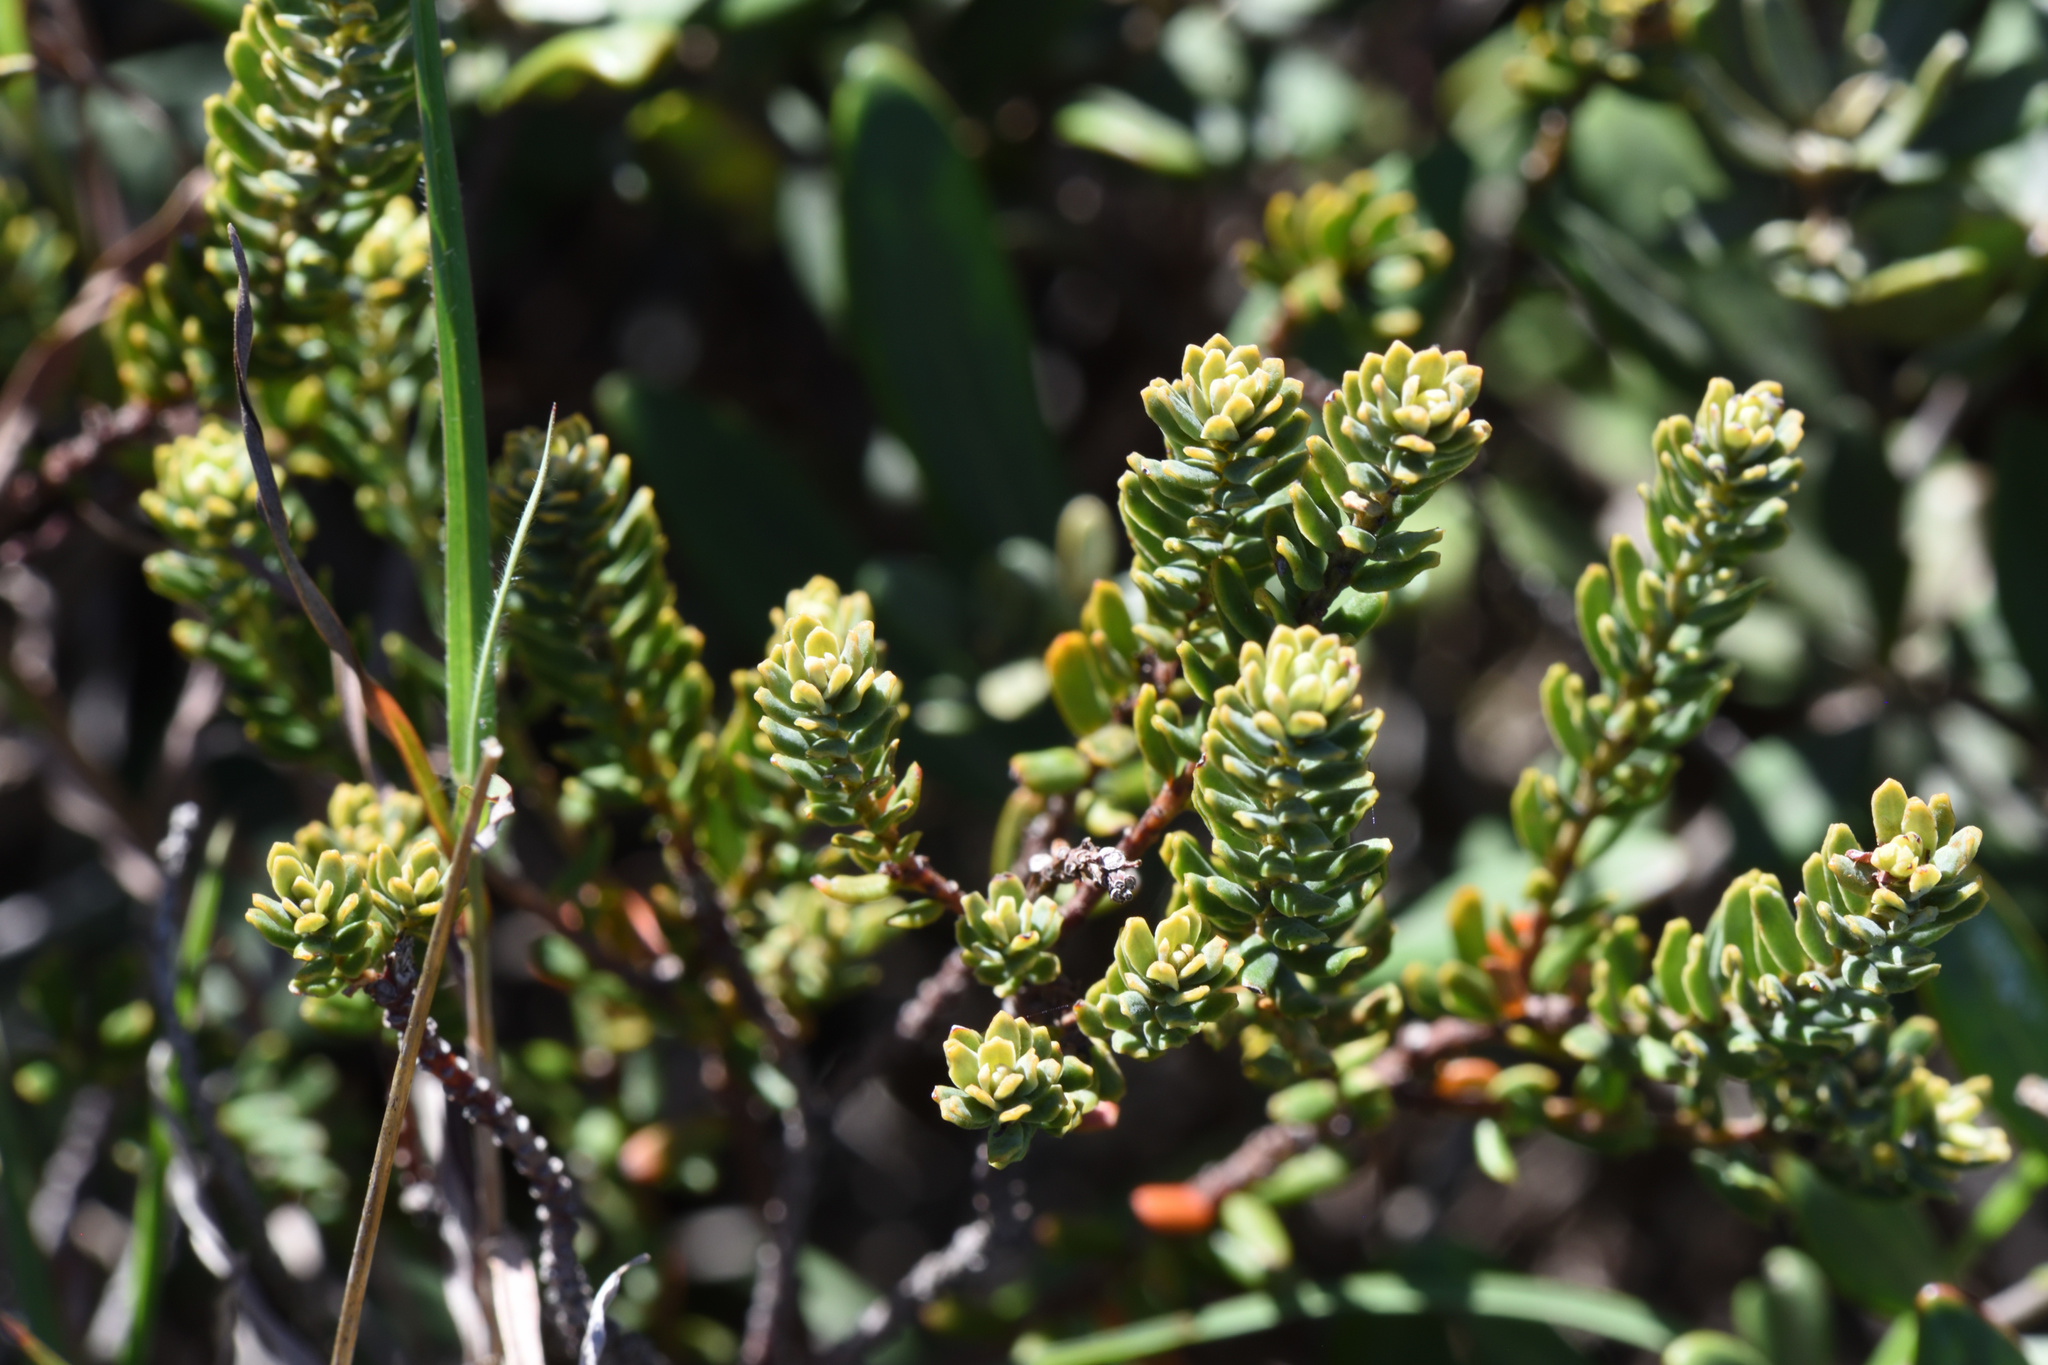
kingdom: Plantae
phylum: Tracheophyta
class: Magnoliopsida
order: Malpighiales
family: Peraceae
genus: Clutia
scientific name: Clutia alaternoides
